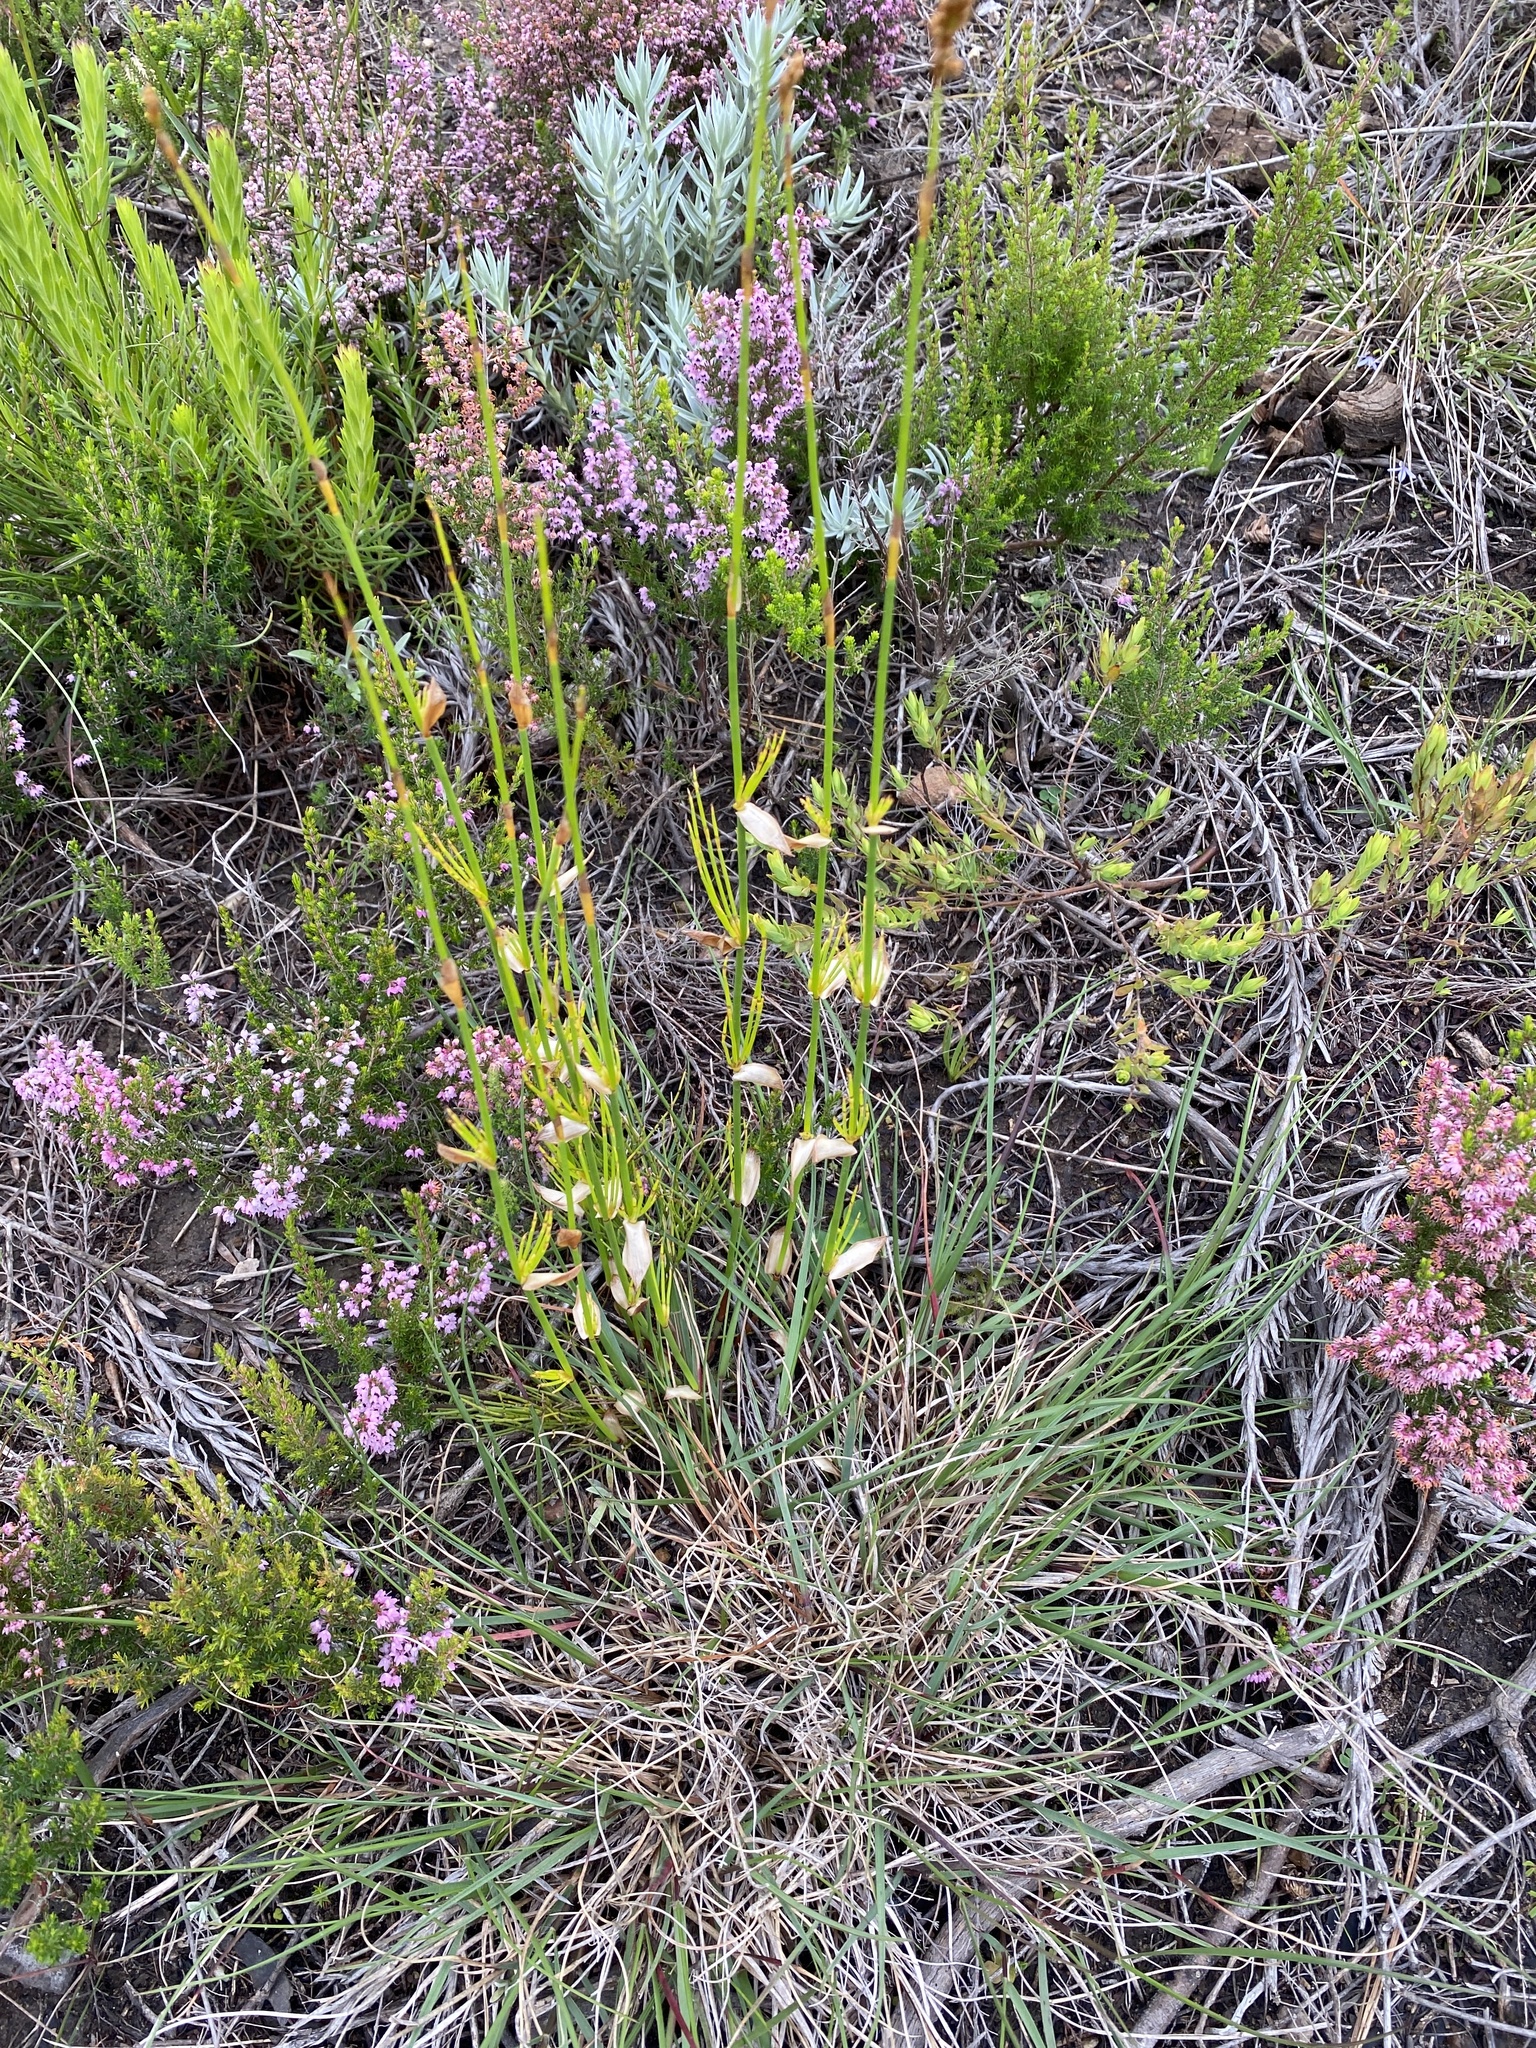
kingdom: Plantae
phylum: Tracheophyta
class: Liliopsida
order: Poales
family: Restionaceae
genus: Elegia
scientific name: Elegia equisetacea
